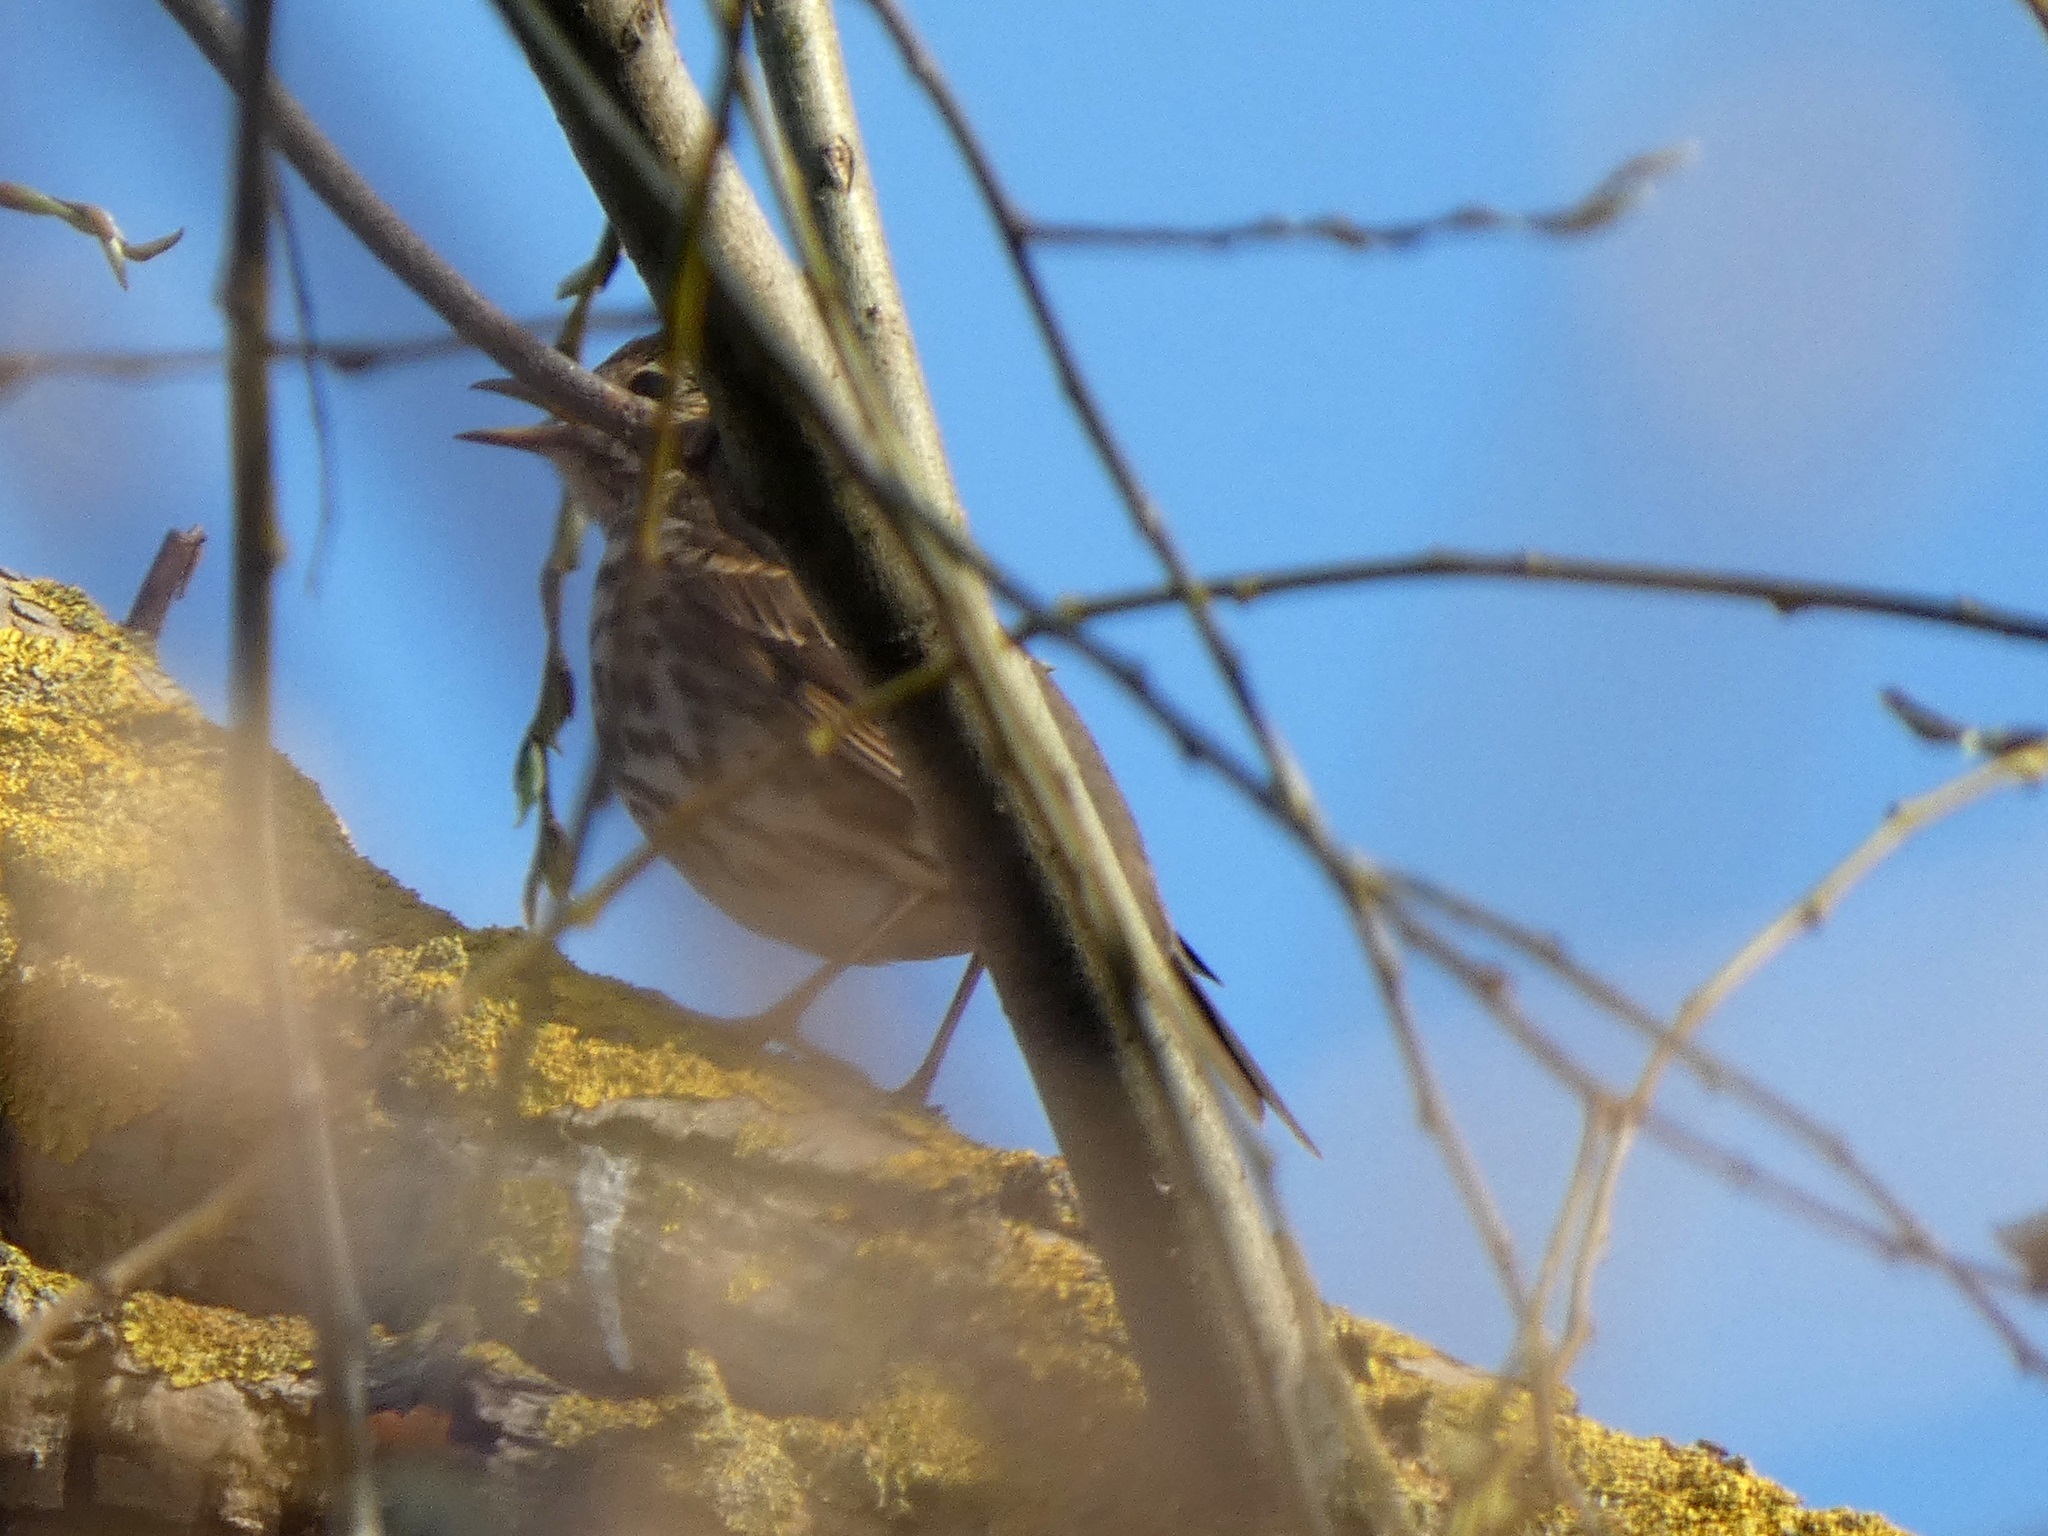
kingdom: Animalia
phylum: Chordata
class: Aves
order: Passeriformes
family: Turdidae
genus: Turdus
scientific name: Turdus philomelos
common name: Song thrush
